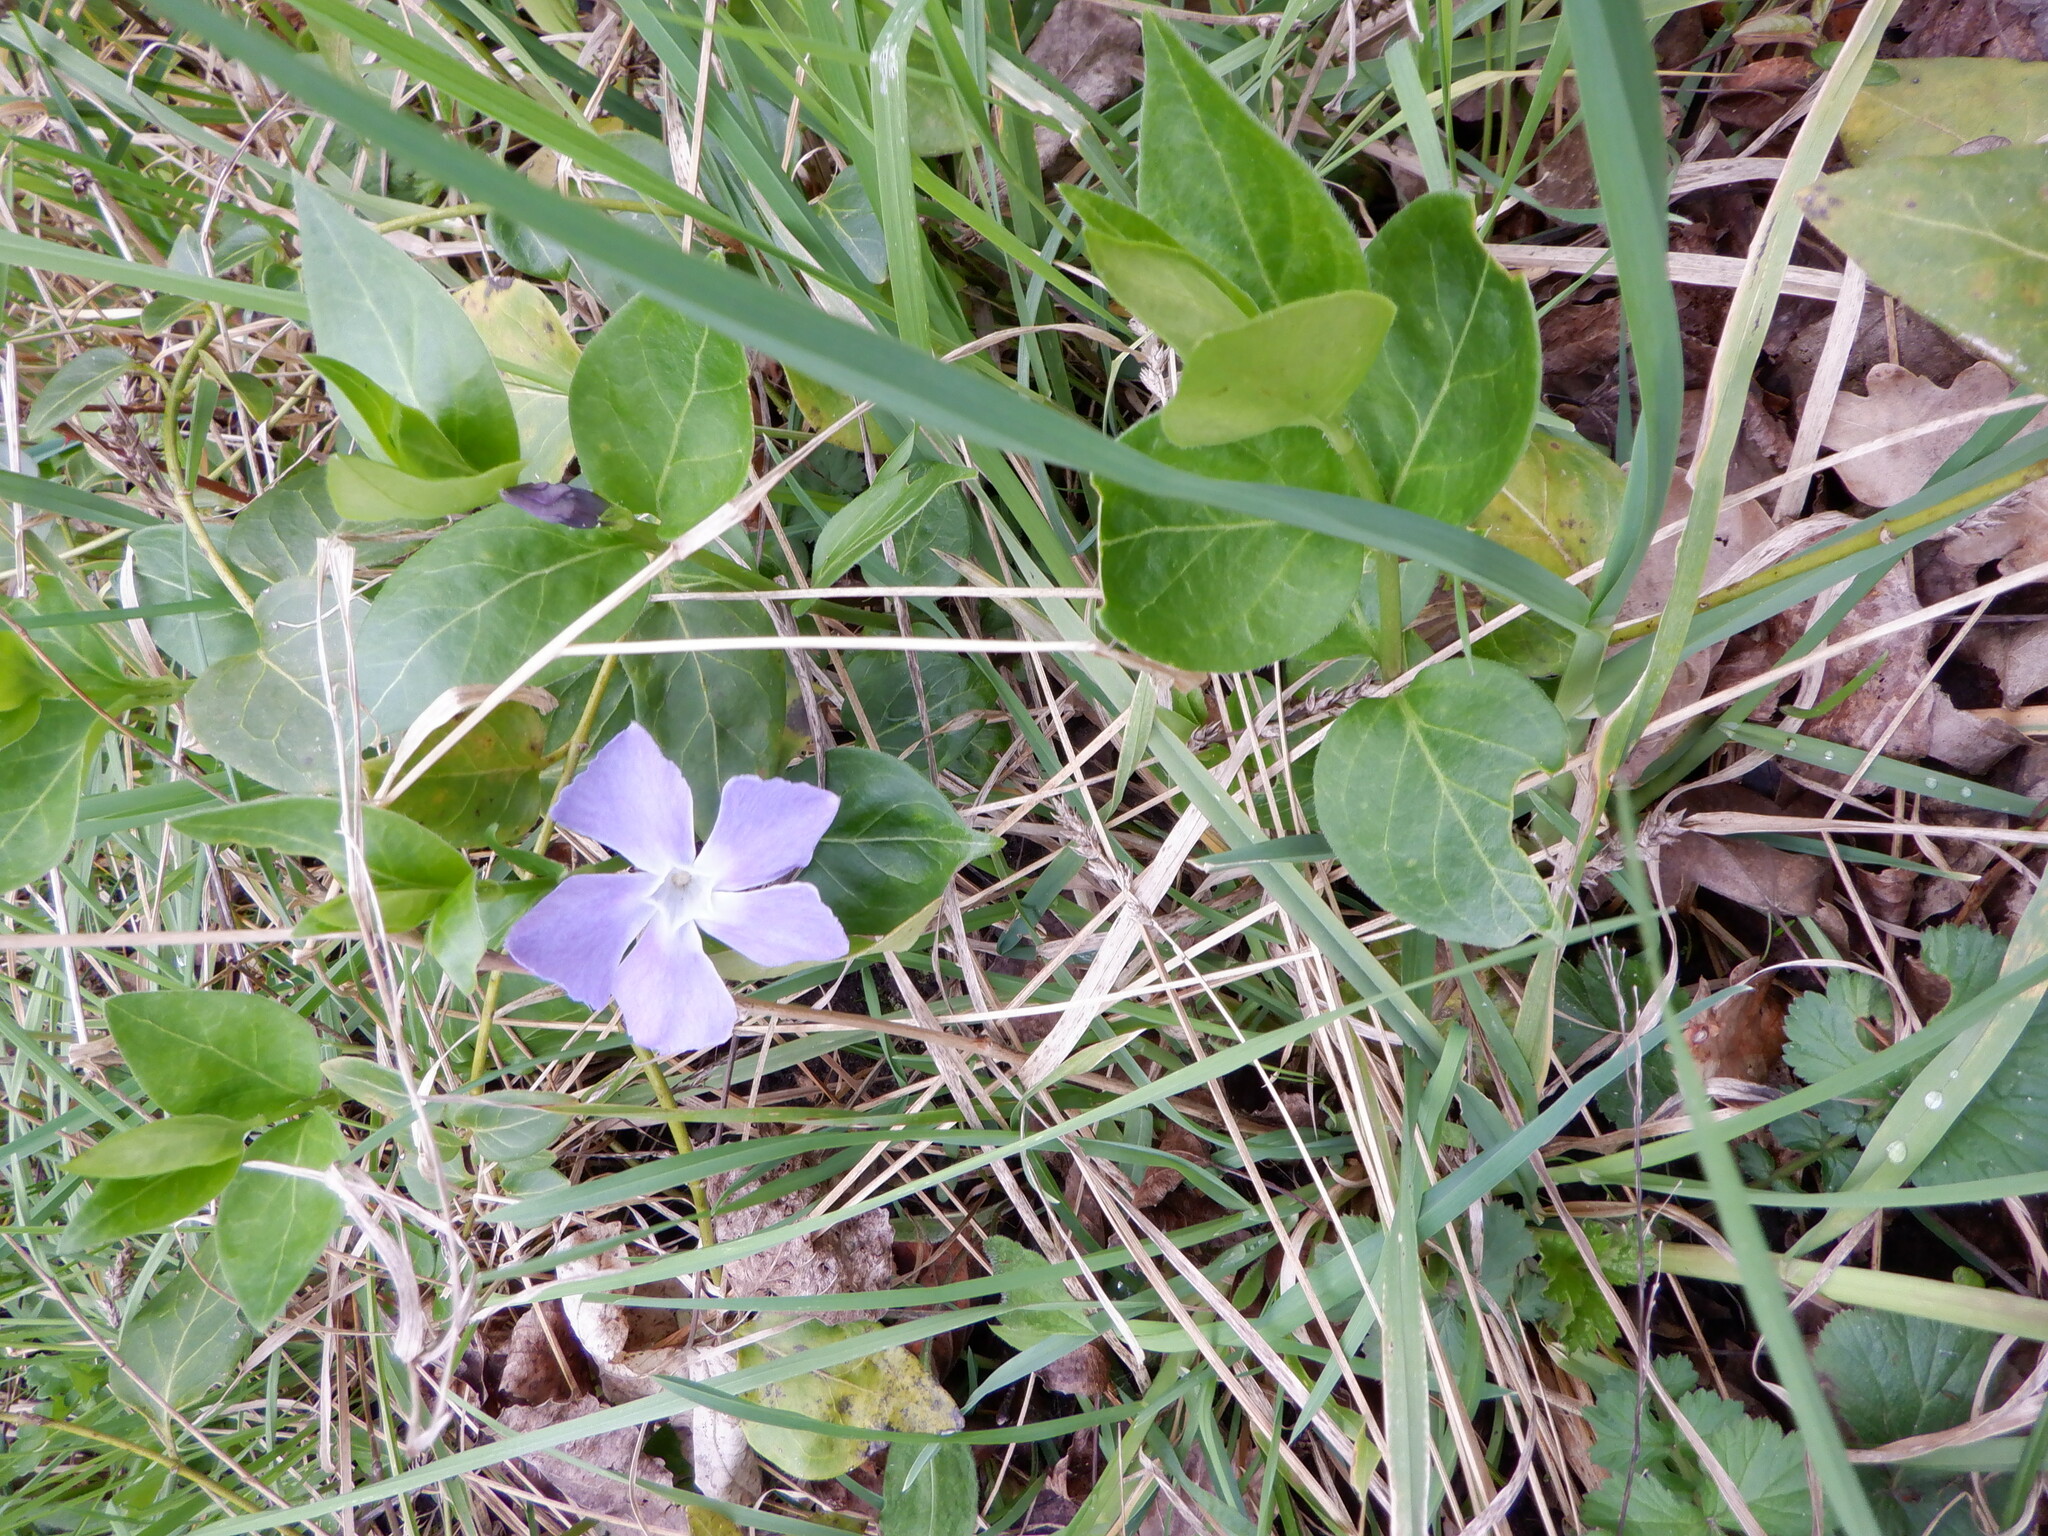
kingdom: Plantae
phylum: Tracheophyta
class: Magnoliopsida
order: Gentianales
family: Apocynaceae
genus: Vinca
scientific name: Vinca major
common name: Greater periwinkle
